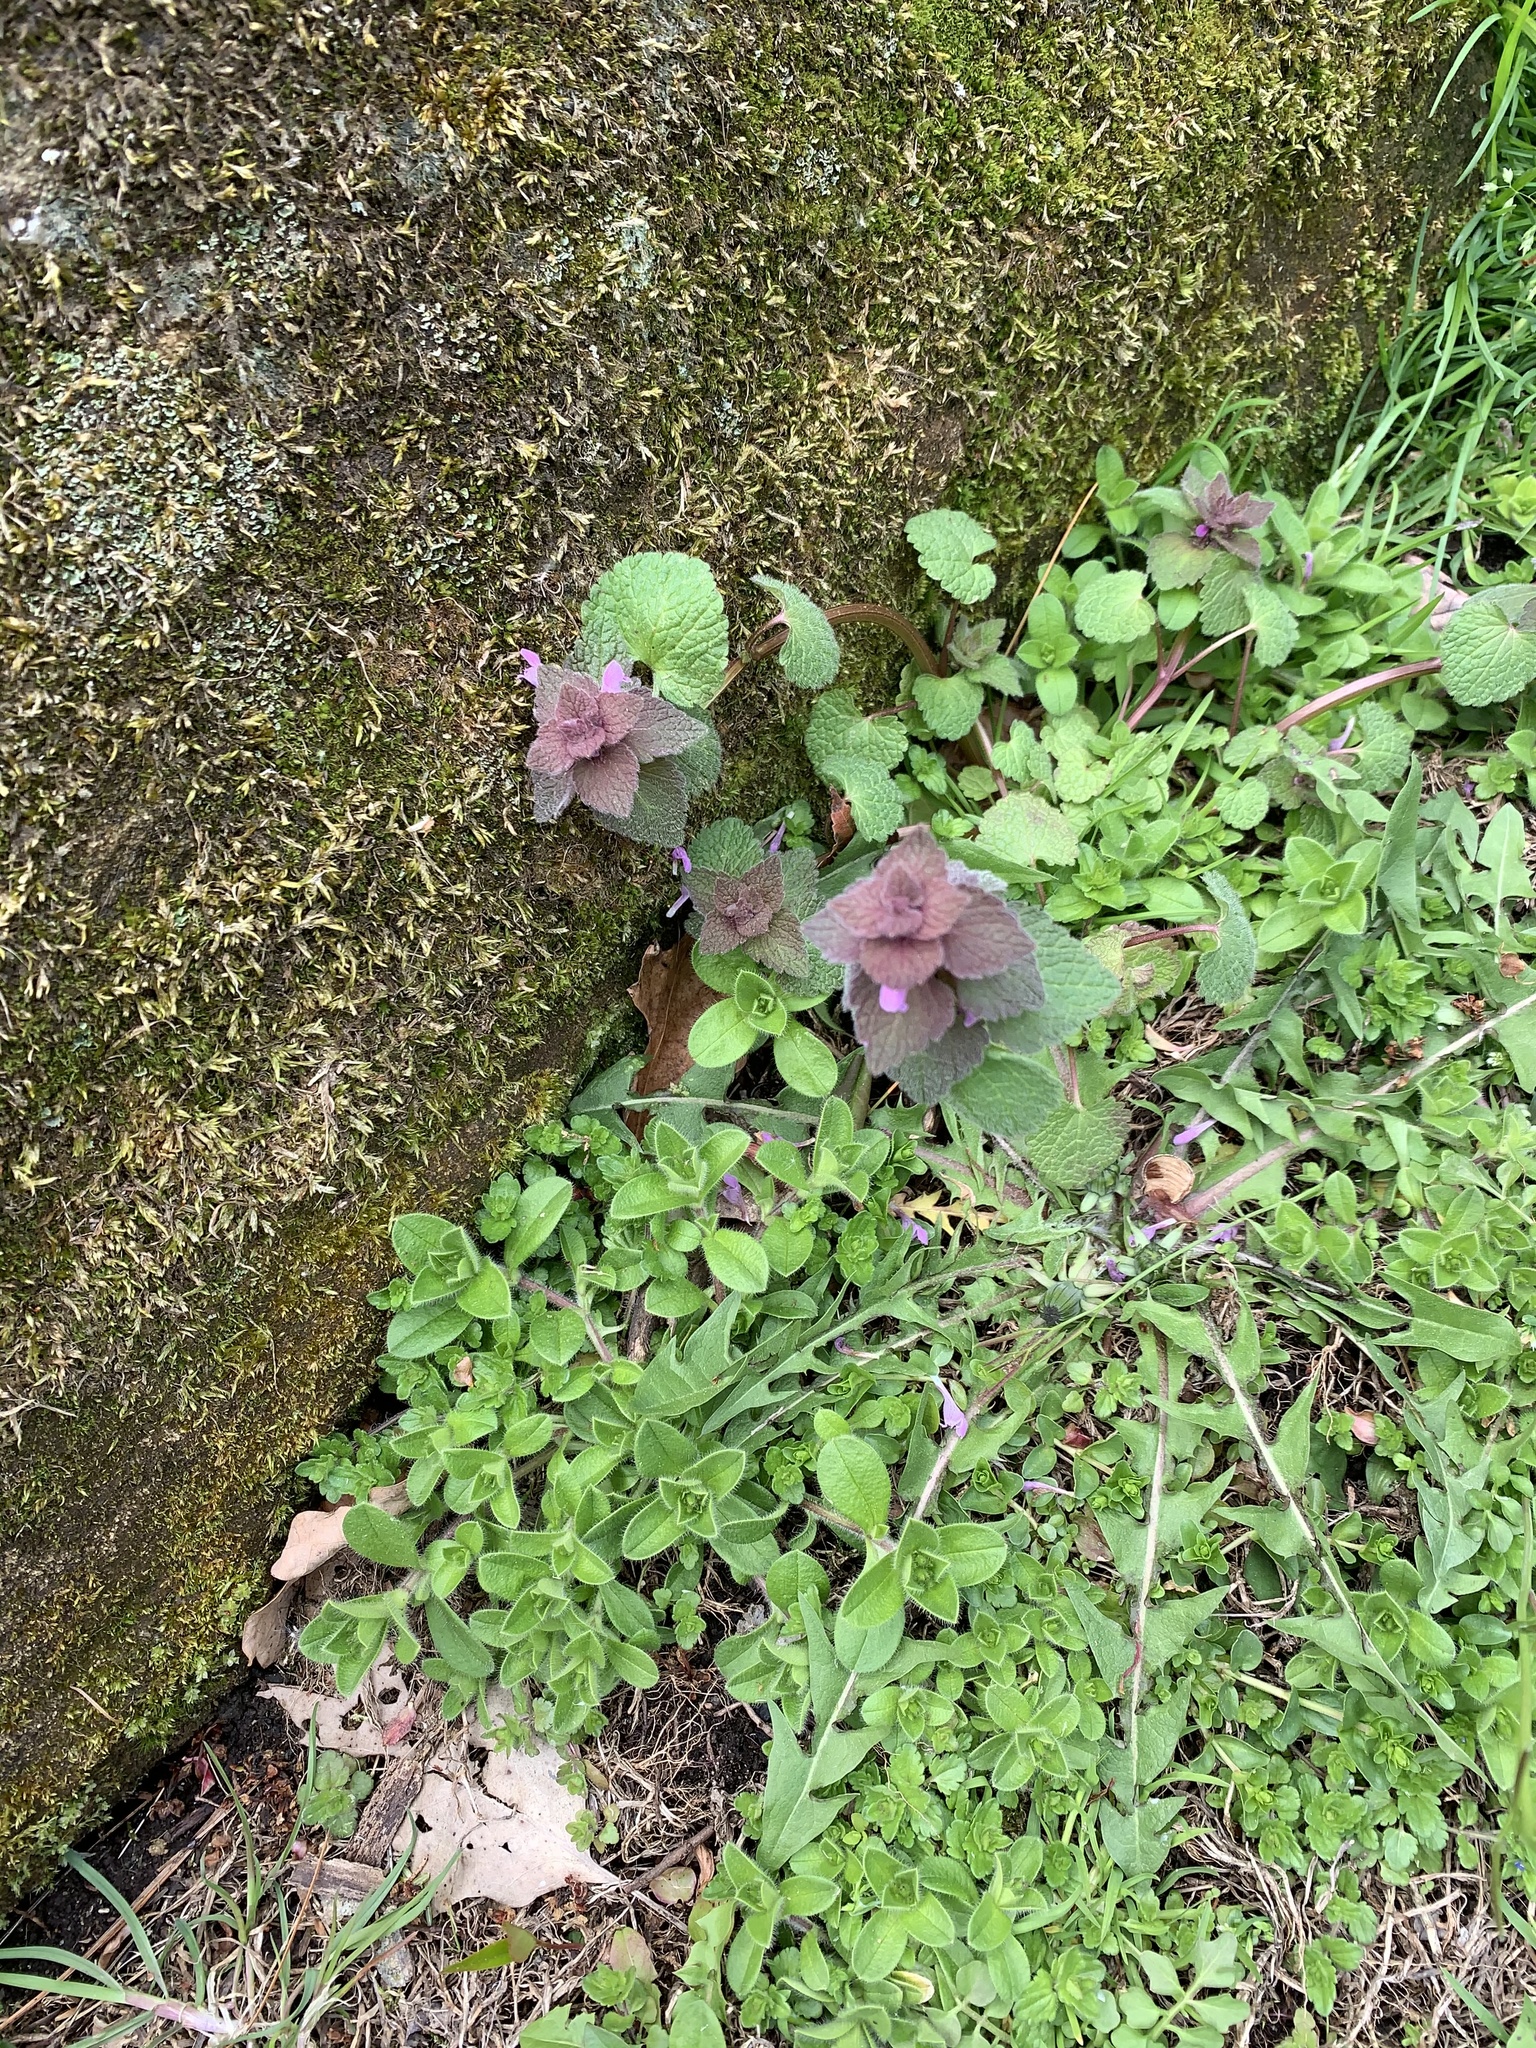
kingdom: Plantae
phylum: Tracheophyta
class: Magnoliopsida
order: Lamiales
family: Lamiaceae
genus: Lamium
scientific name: Lamium purpureum
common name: Red dead-nettle
